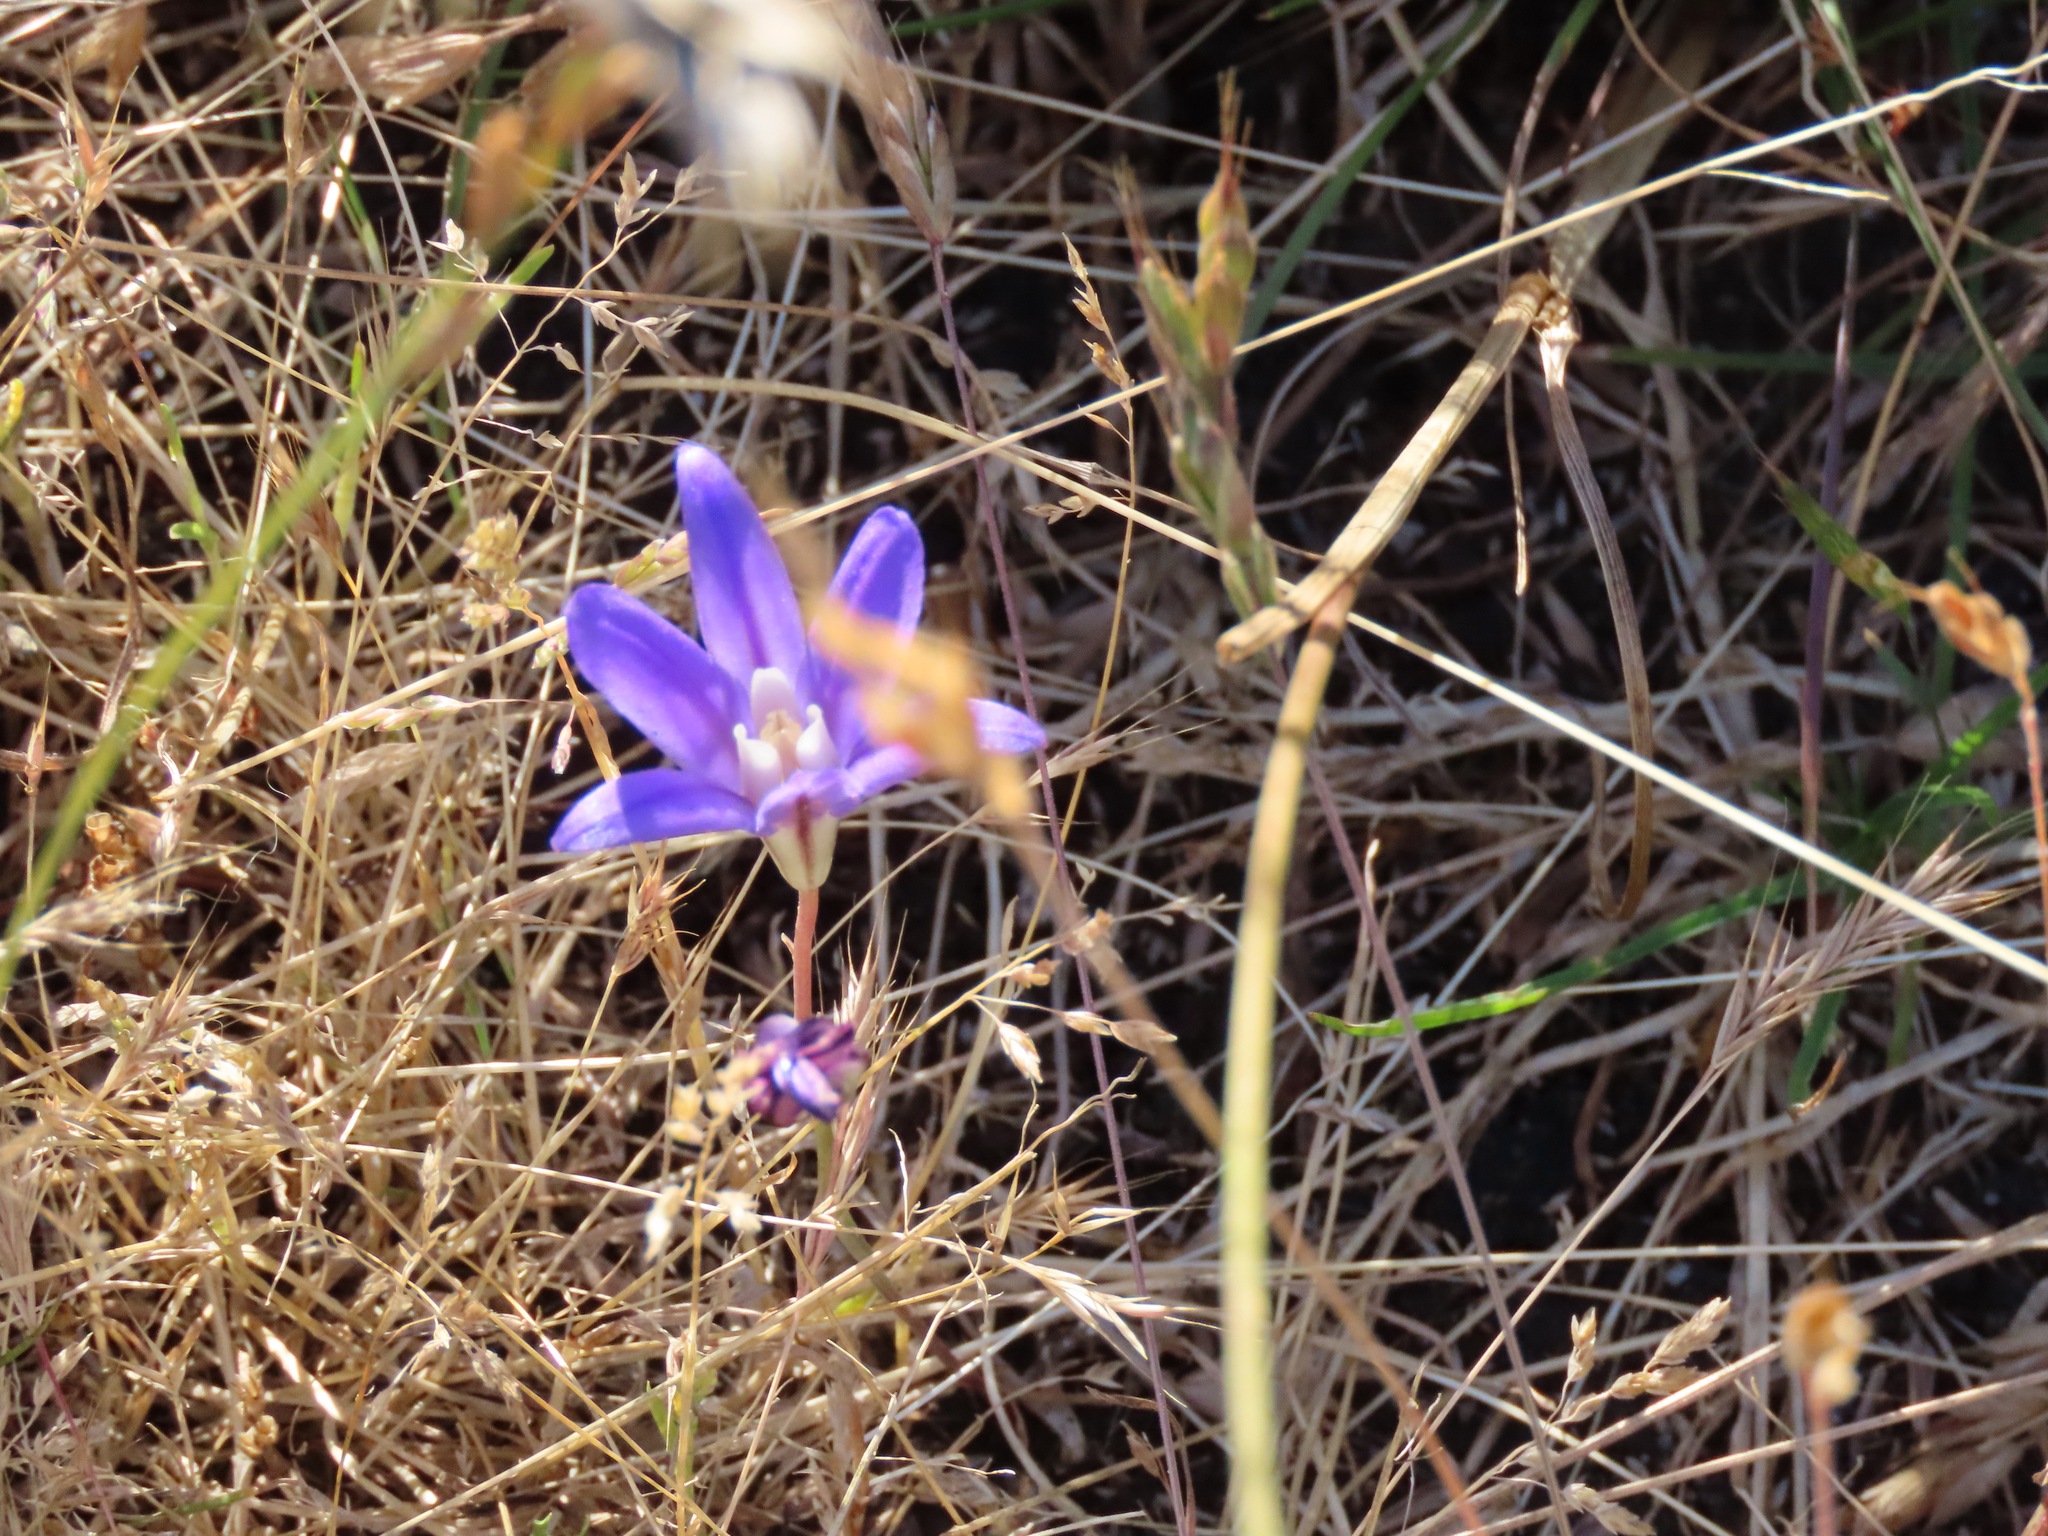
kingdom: Plantae
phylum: Tracheophyta
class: Liliopsida
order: Asparagales
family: Asparagaceae
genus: Brodiaea
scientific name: Brodiaea coronaria
